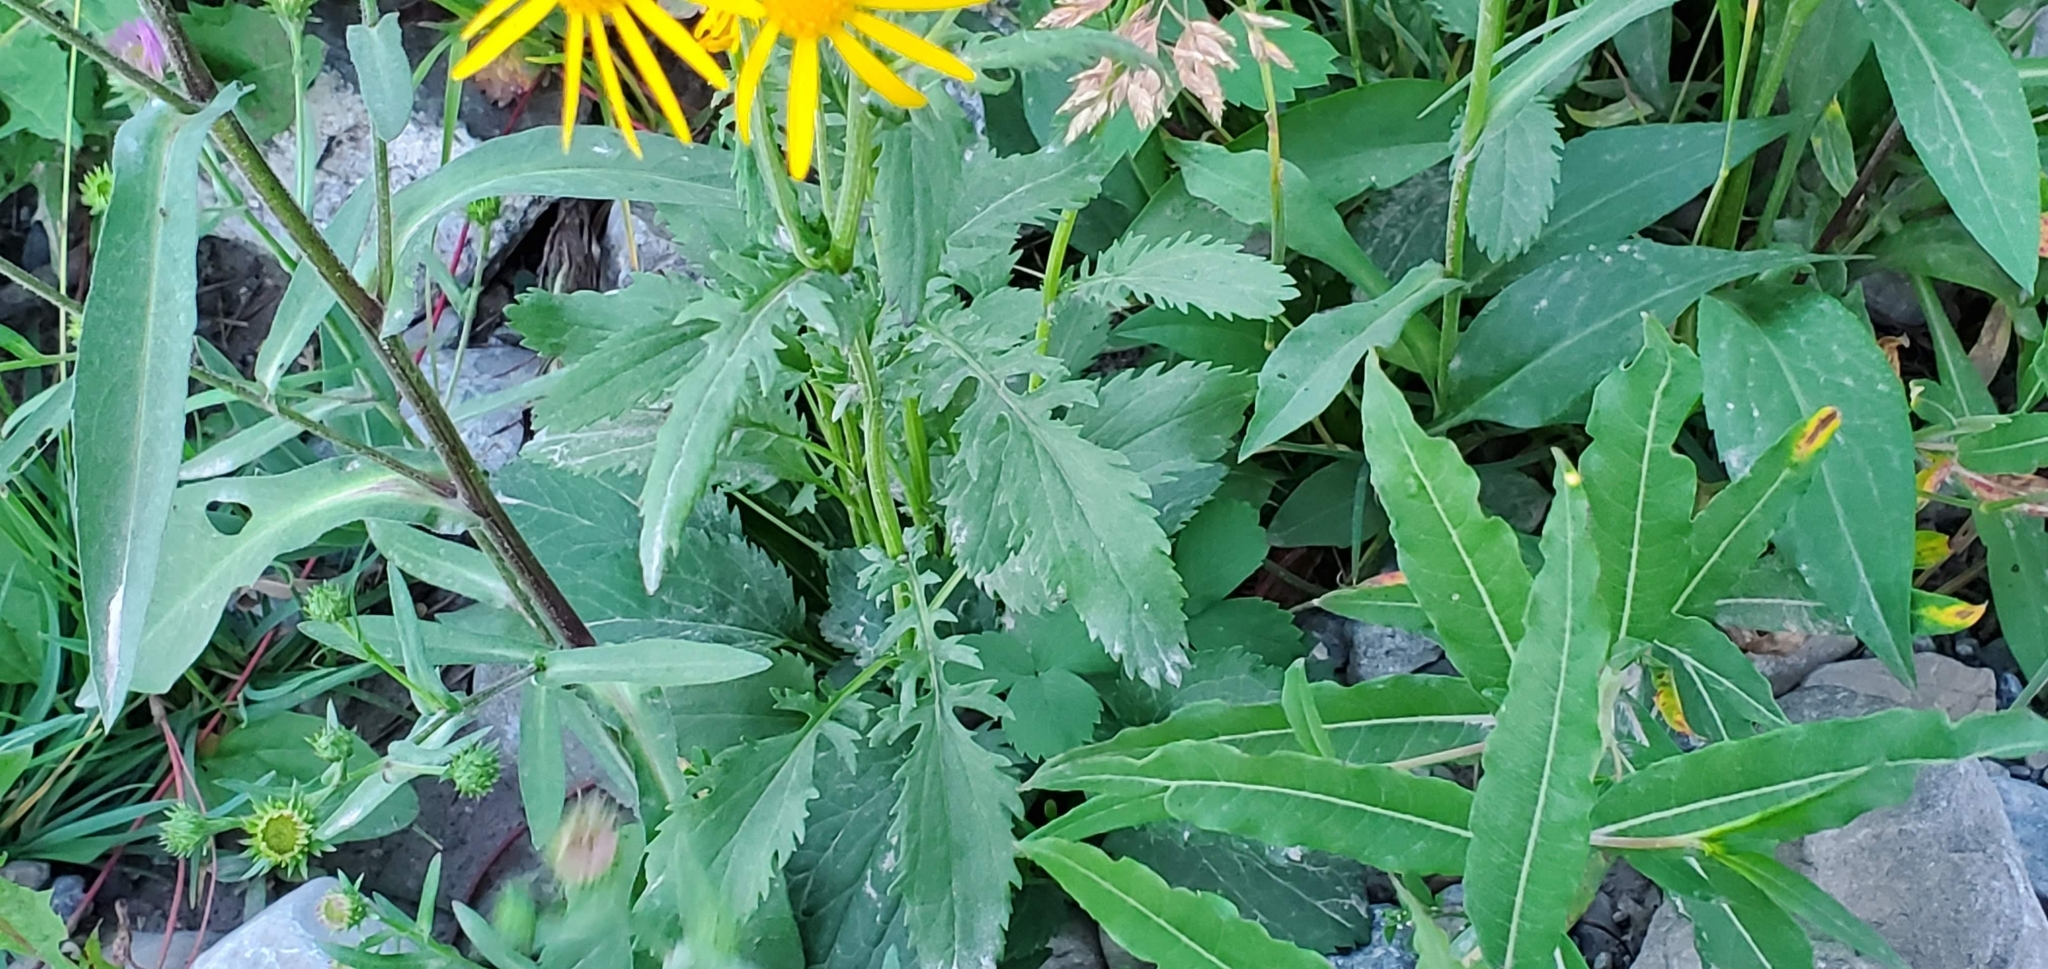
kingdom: Plantae
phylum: Tracheophyta
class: Magnoliopsida
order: Asterales
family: Asteraceae
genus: Packera
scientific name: Packera paupercula
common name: Balsam groundsel
